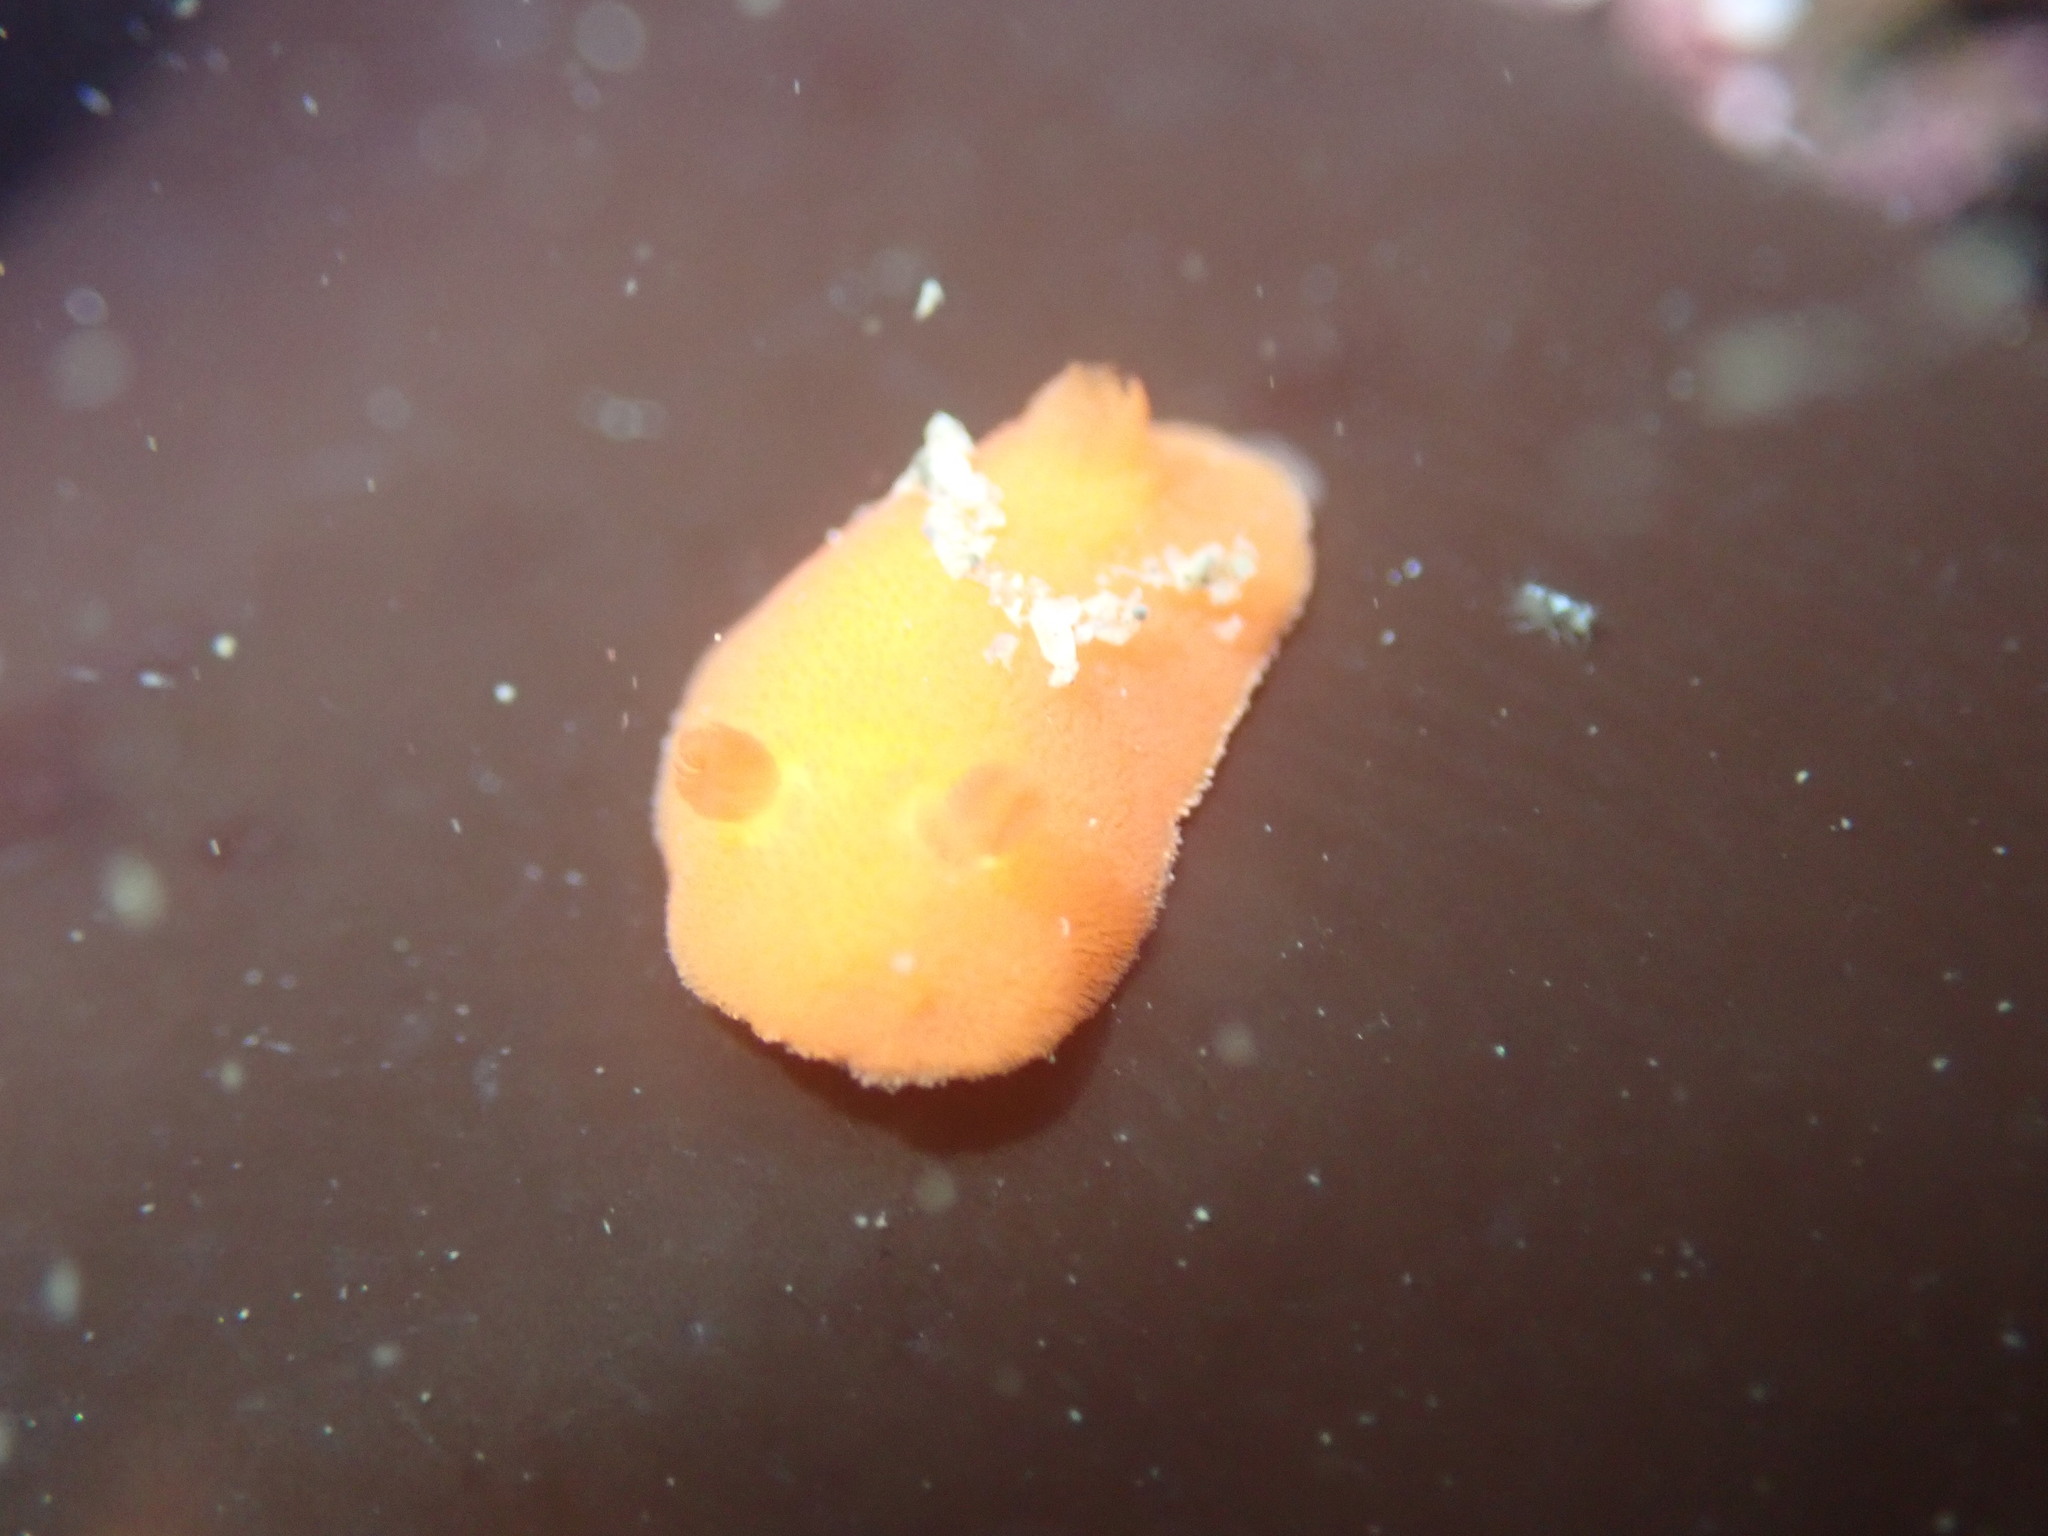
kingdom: Animalia
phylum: Mollusca
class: Gastropoda
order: Nudibranchia
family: Discodorididae
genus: Rostanga
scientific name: Rostanga pulchra
